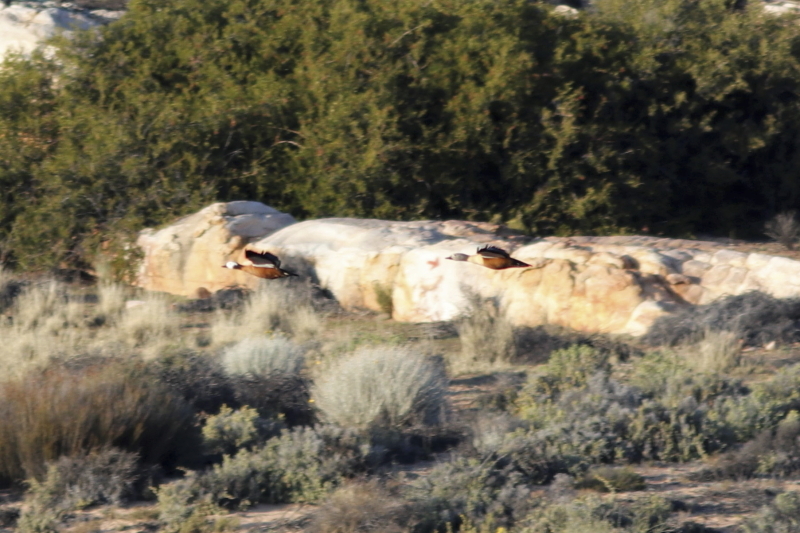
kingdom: Animalia
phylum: Chordata
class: Aves
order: Anseriformes
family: Anatidae
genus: Tadorna
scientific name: Tadorna cana
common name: South african shelduck
